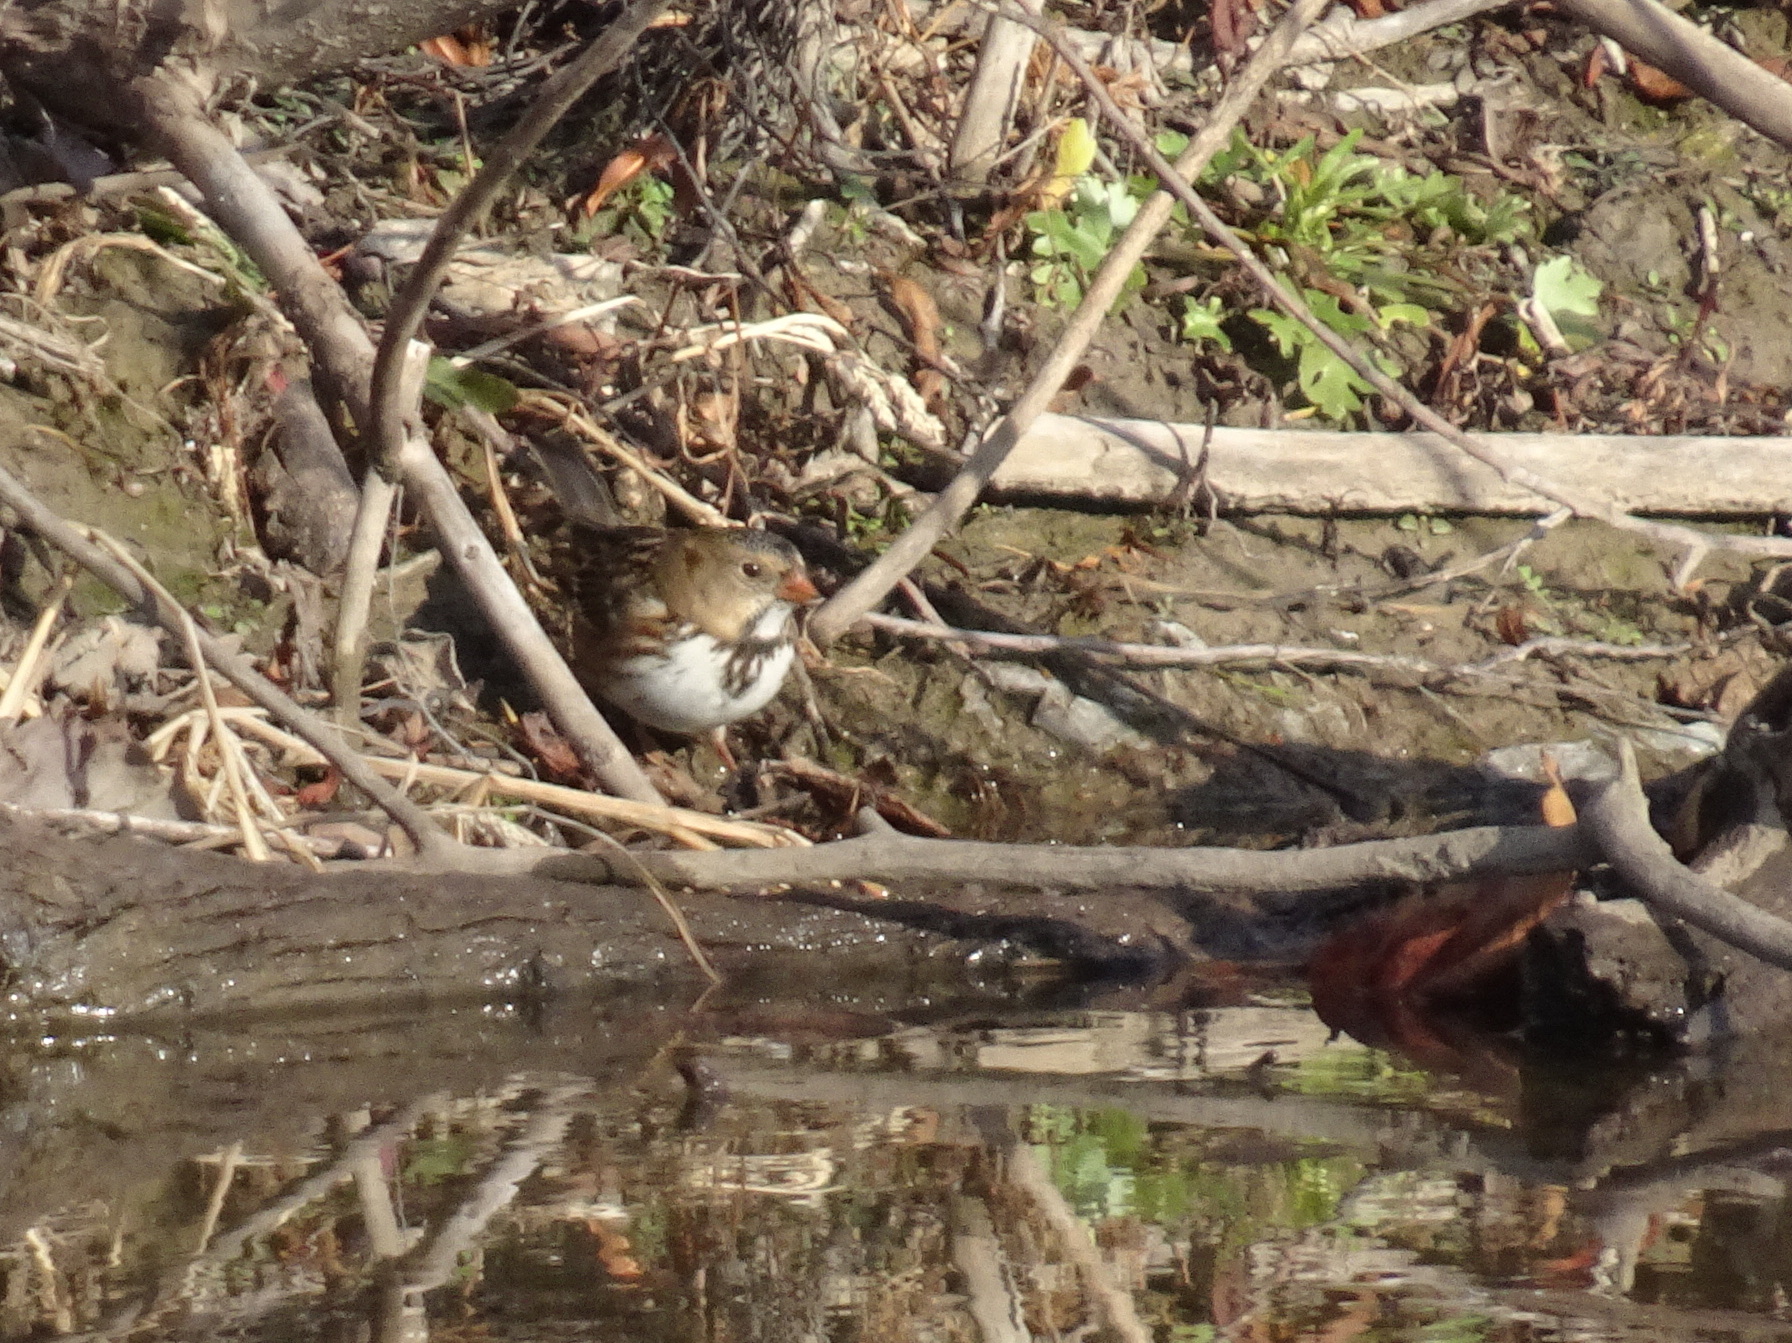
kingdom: Animalia
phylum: Chordata
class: Aves
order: Passeriformes
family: Passerellidae
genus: Zonotrichia
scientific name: Zonotrichia querula
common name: Harris's sparrow
